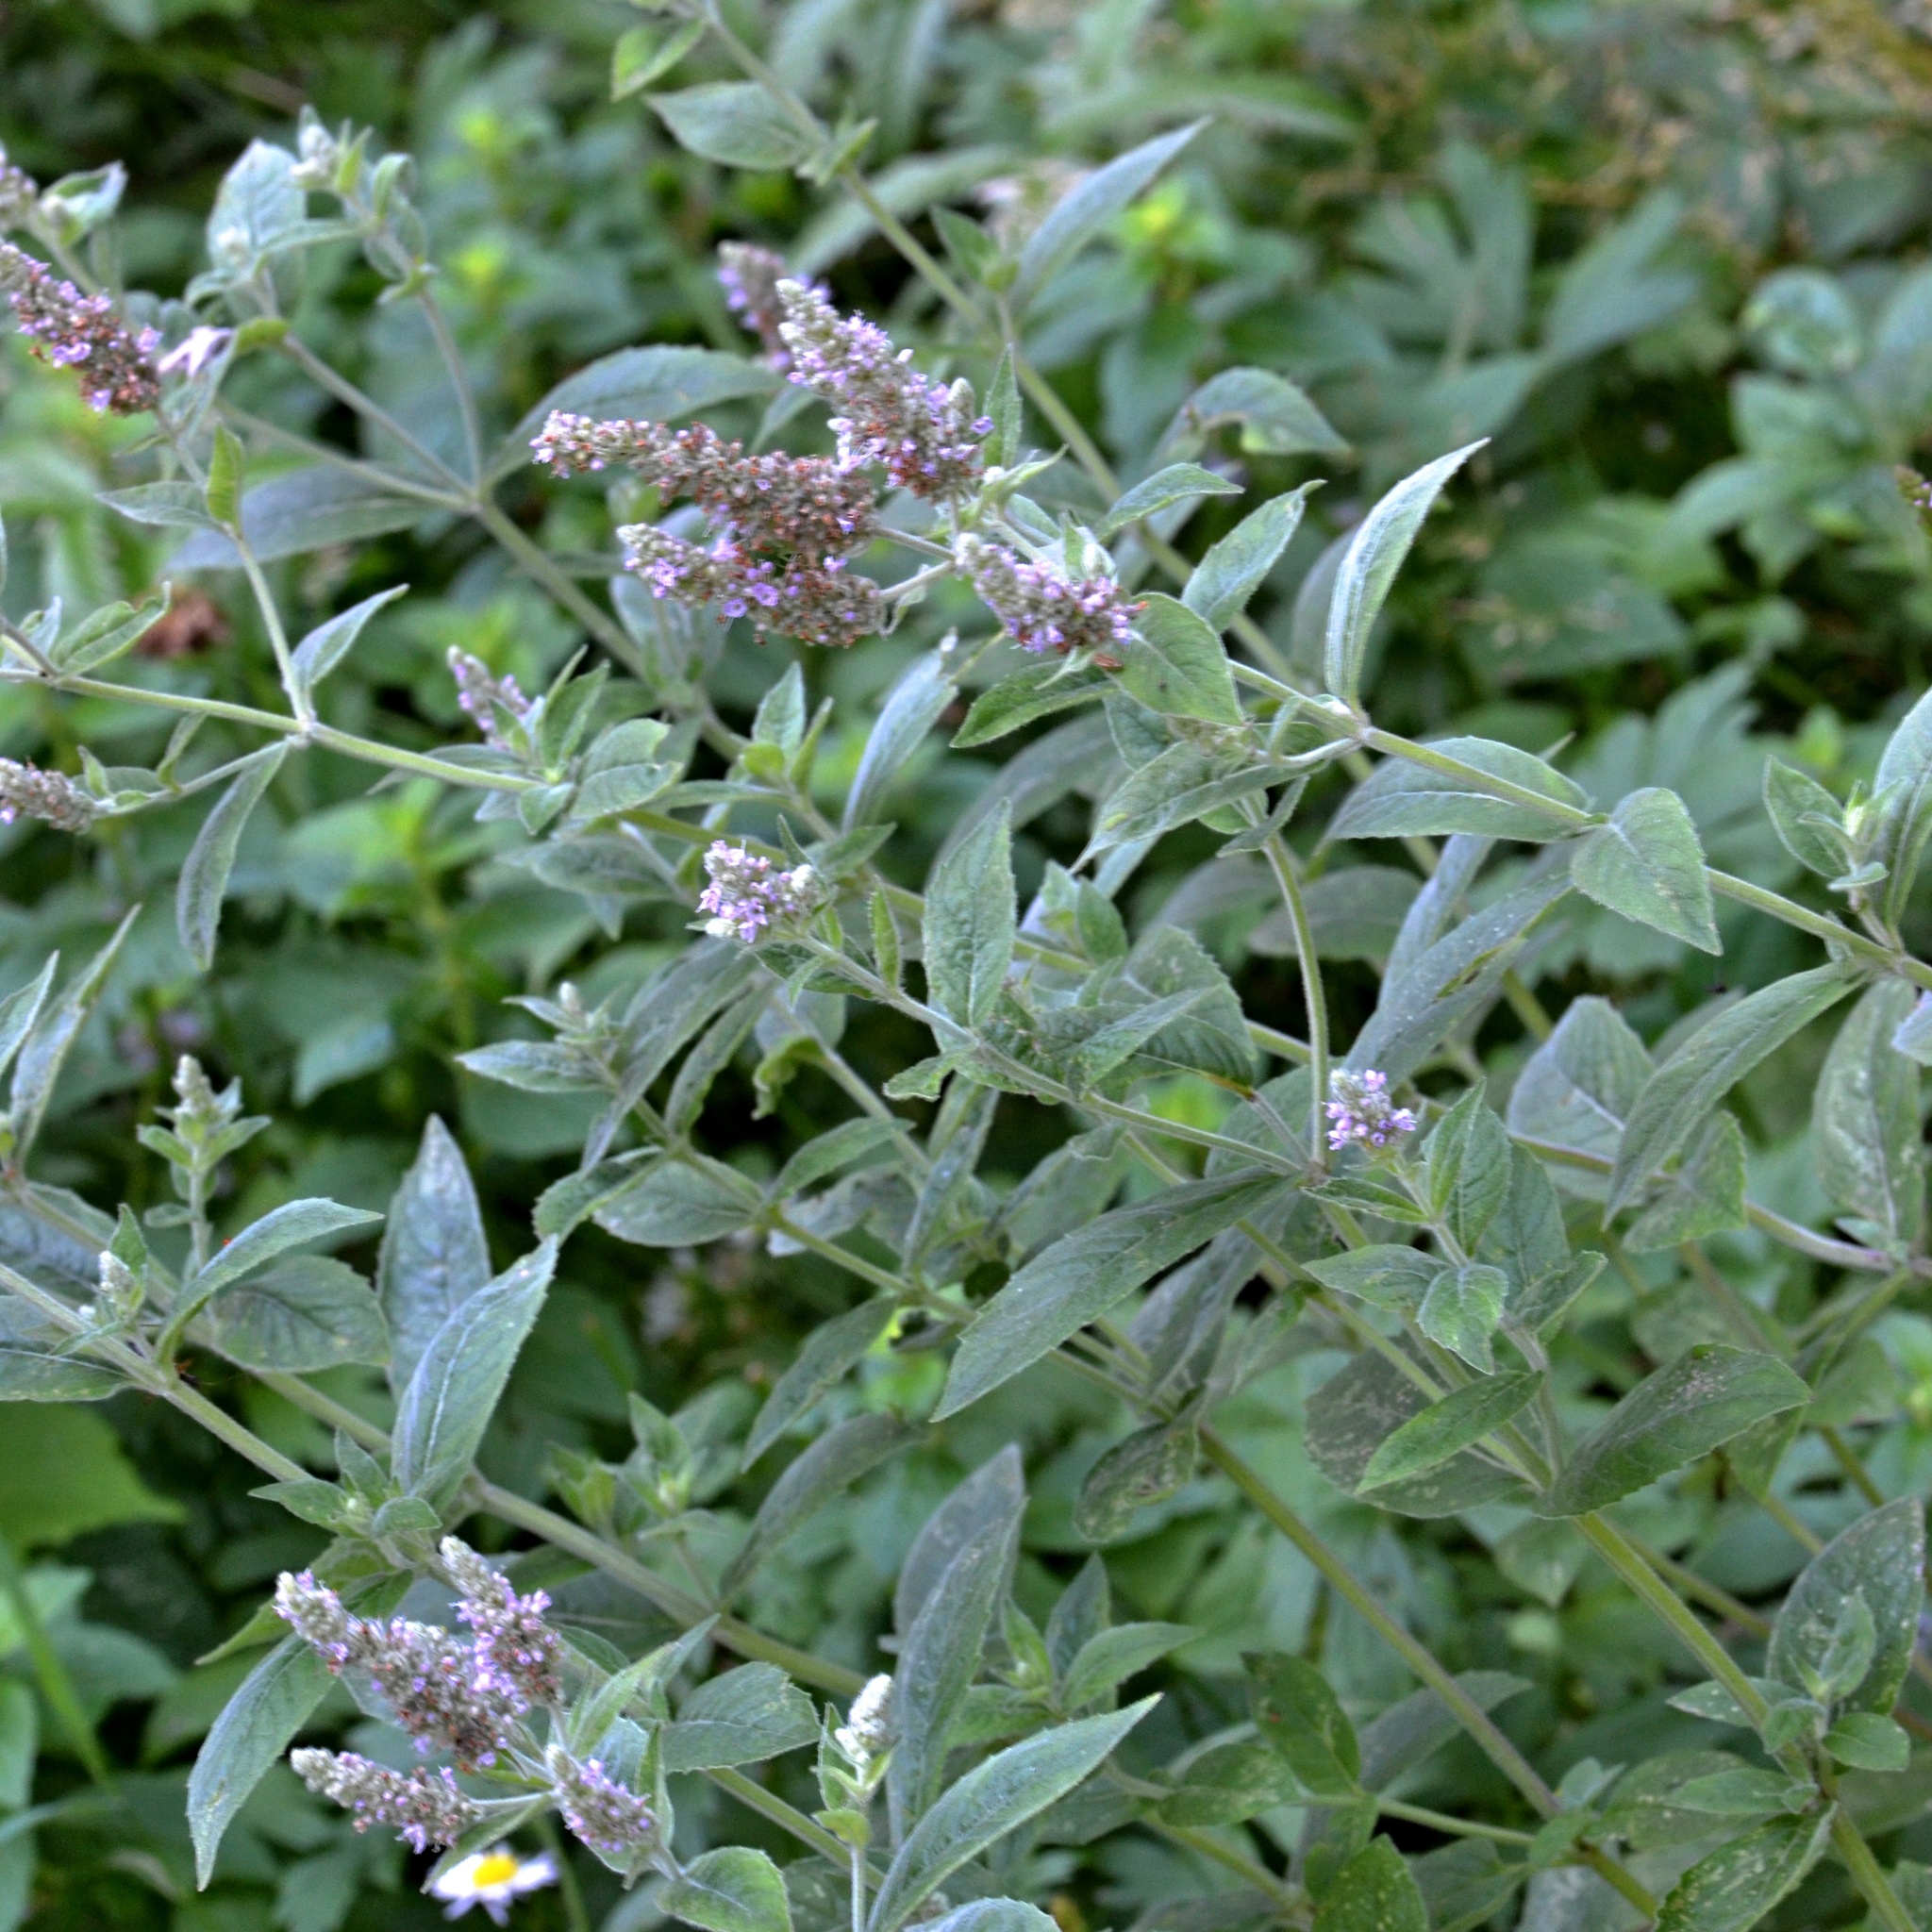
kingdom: Plantae
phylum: Tracheophyta
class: Magnoliopsida
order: Lamiales
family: Lamiaceae
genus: Mentha
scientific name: Mentha longifolia
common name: Horse mint
